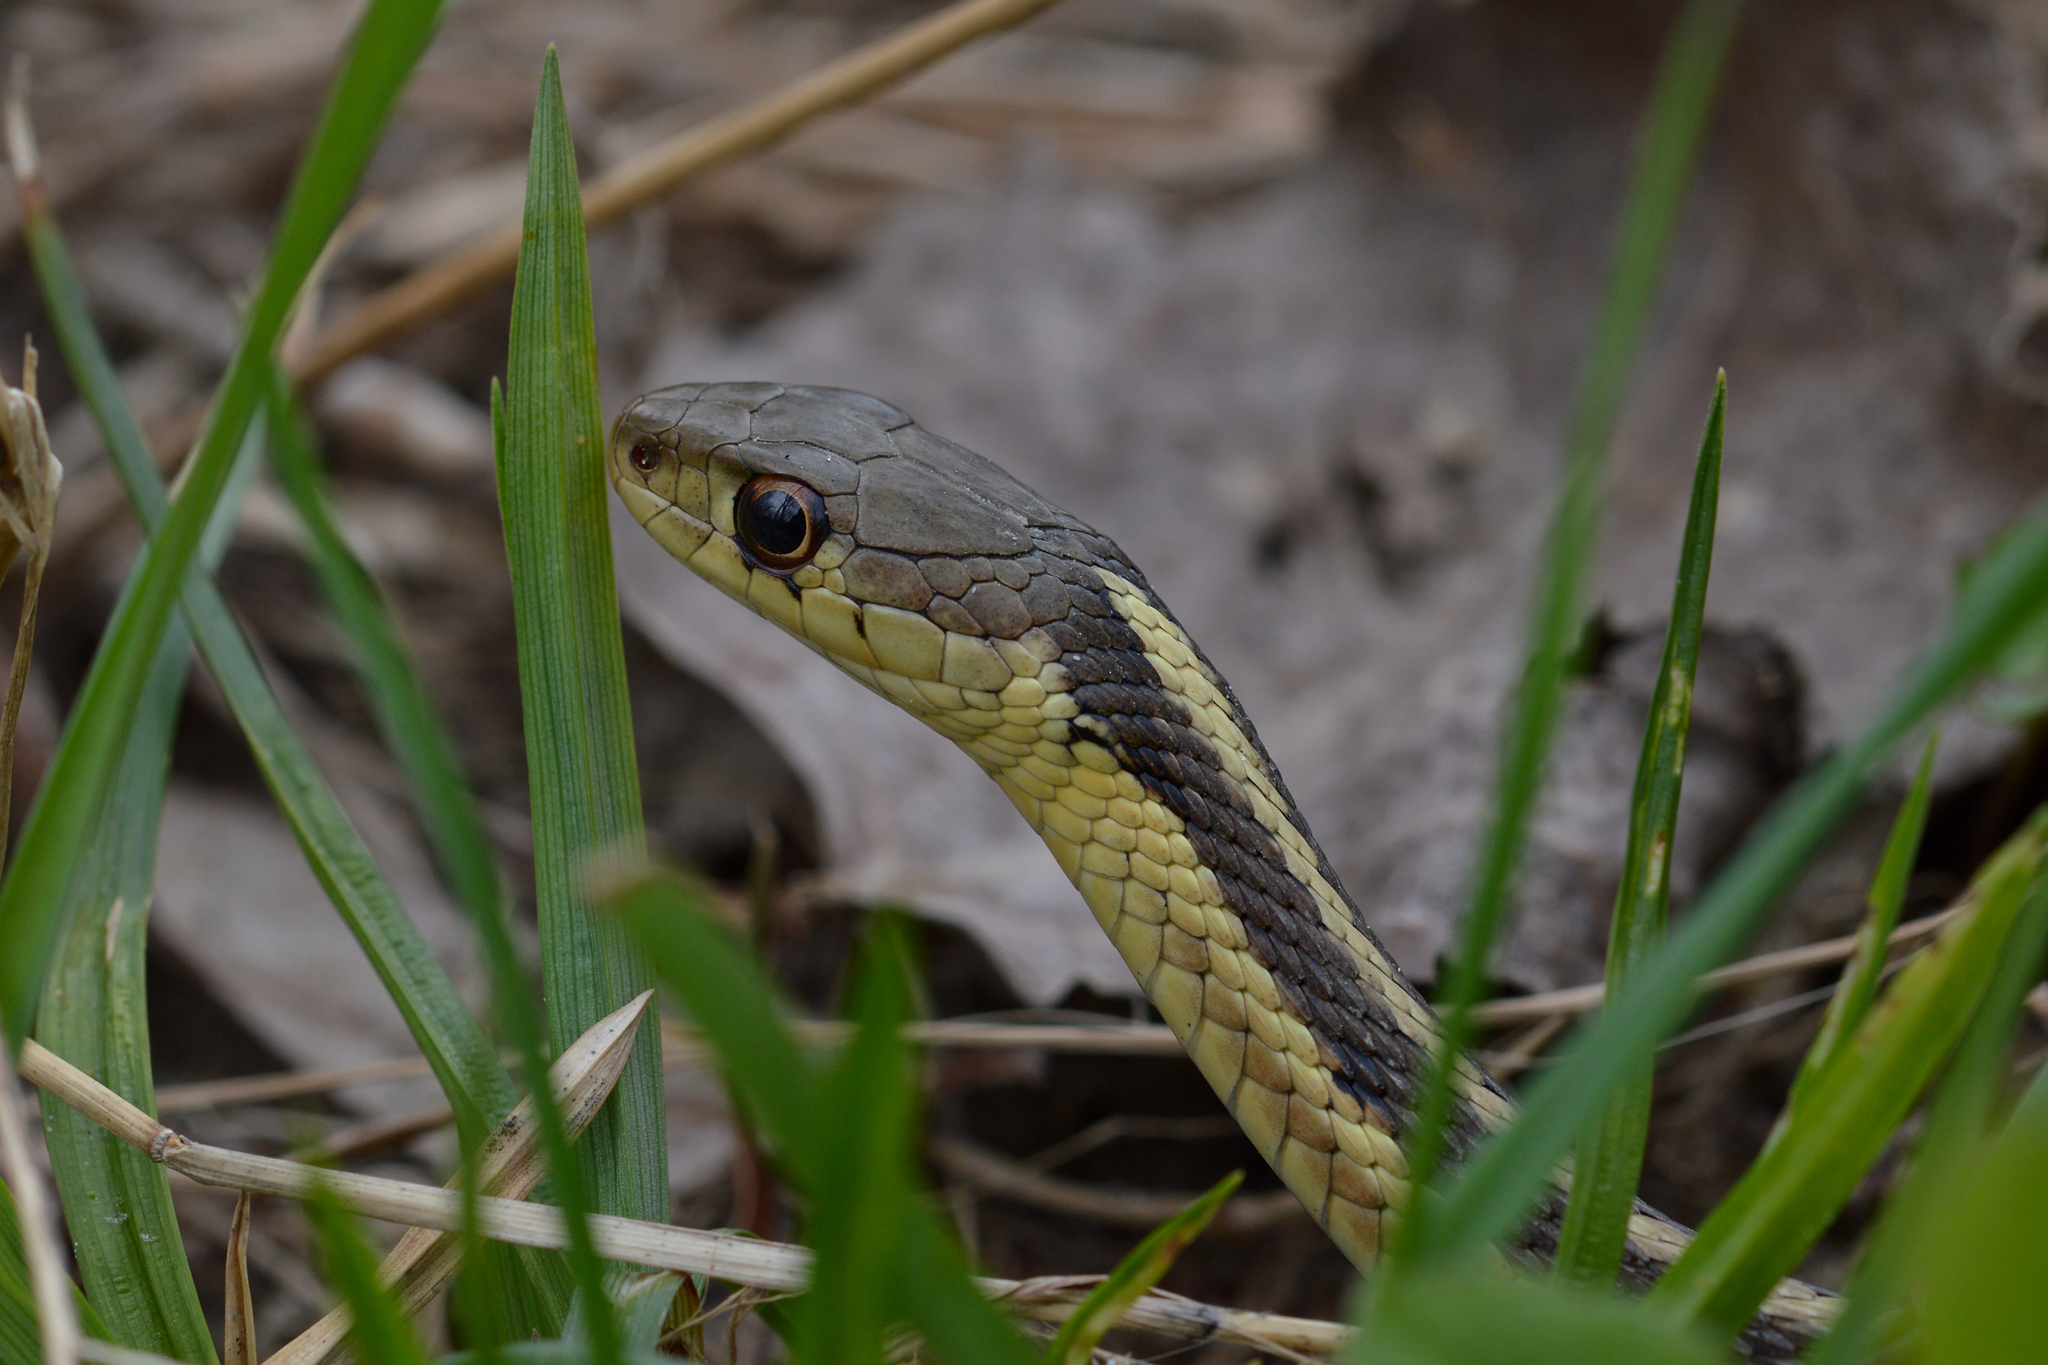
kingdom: Animalia
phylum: Chordata
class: Squamata
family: Colubridae
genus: Thamnophis
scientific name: Thamnophis sirtalis
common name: Common garter snake
